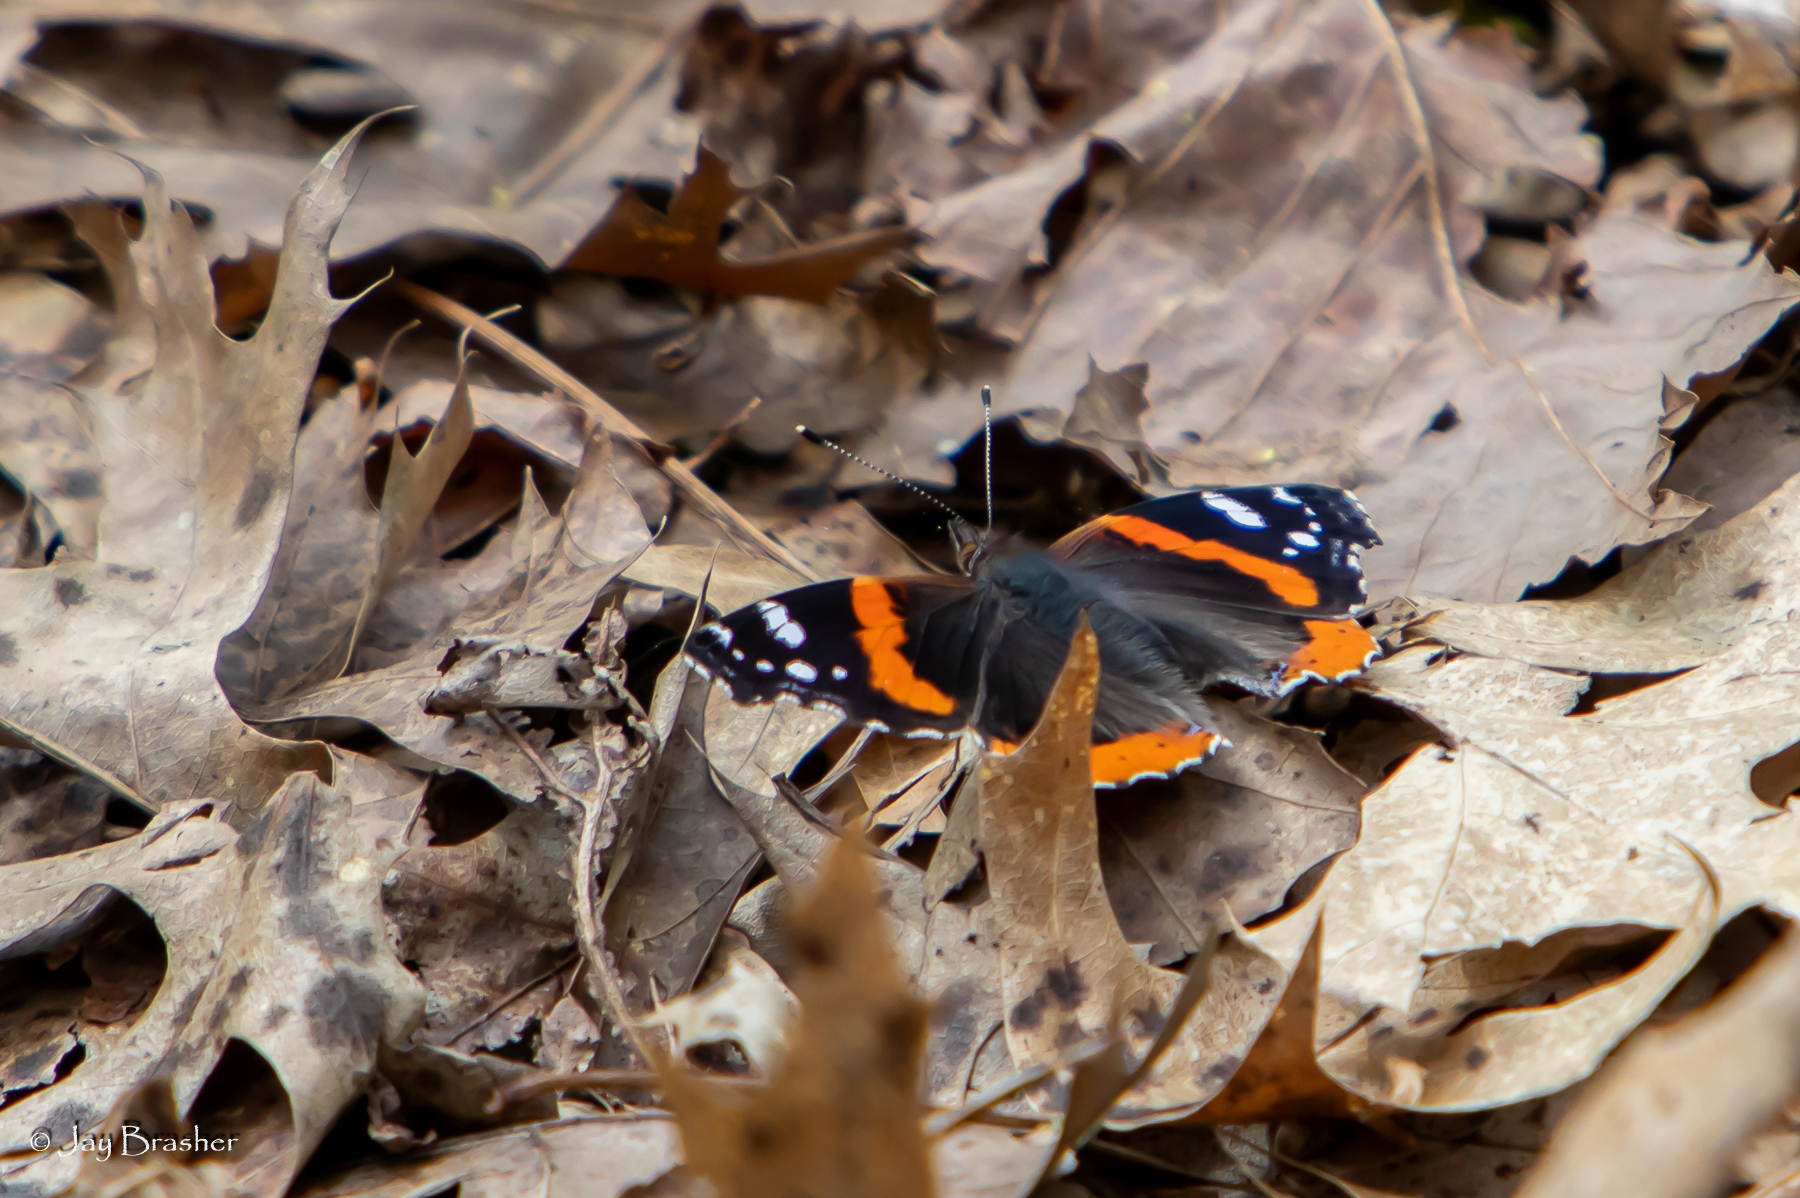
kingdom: Animalia
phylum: Arthropoda
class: Insecta
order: Lepidoptera
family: Nymphalidae
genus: Vanessa
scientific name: Vanessa atalanta
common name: Red admiral
